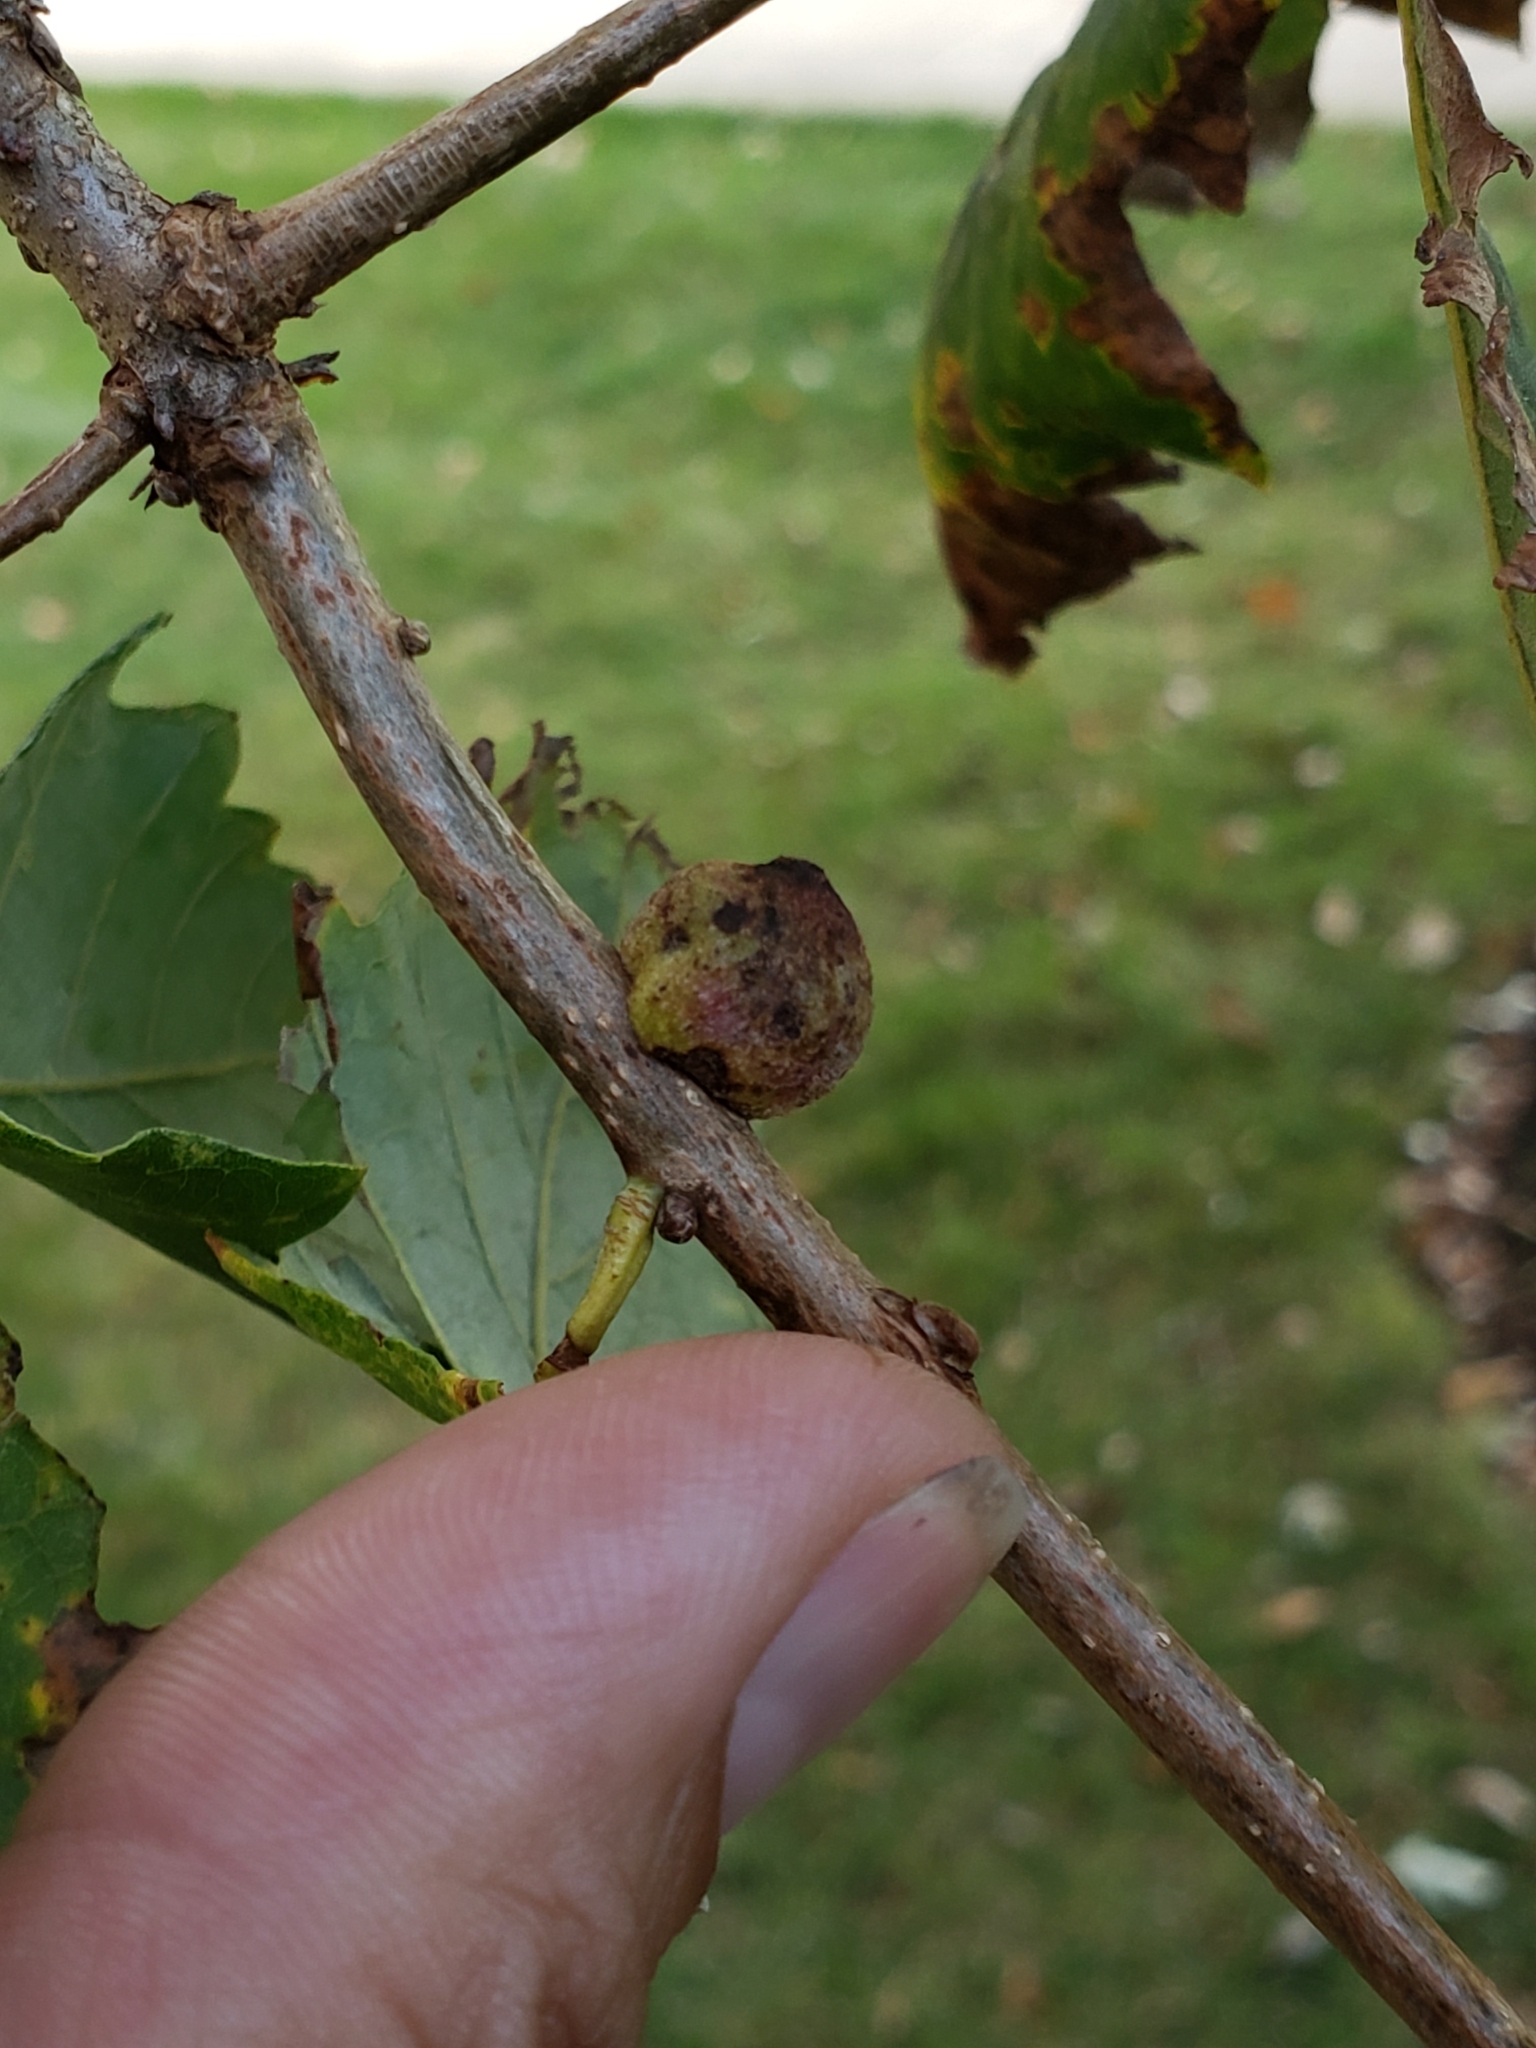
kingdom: Animalia
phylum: Arthropoda
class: Insecta
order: Hymenoptera
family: Cynipidae
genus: Disholcaspis
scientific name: Disholcaspis
